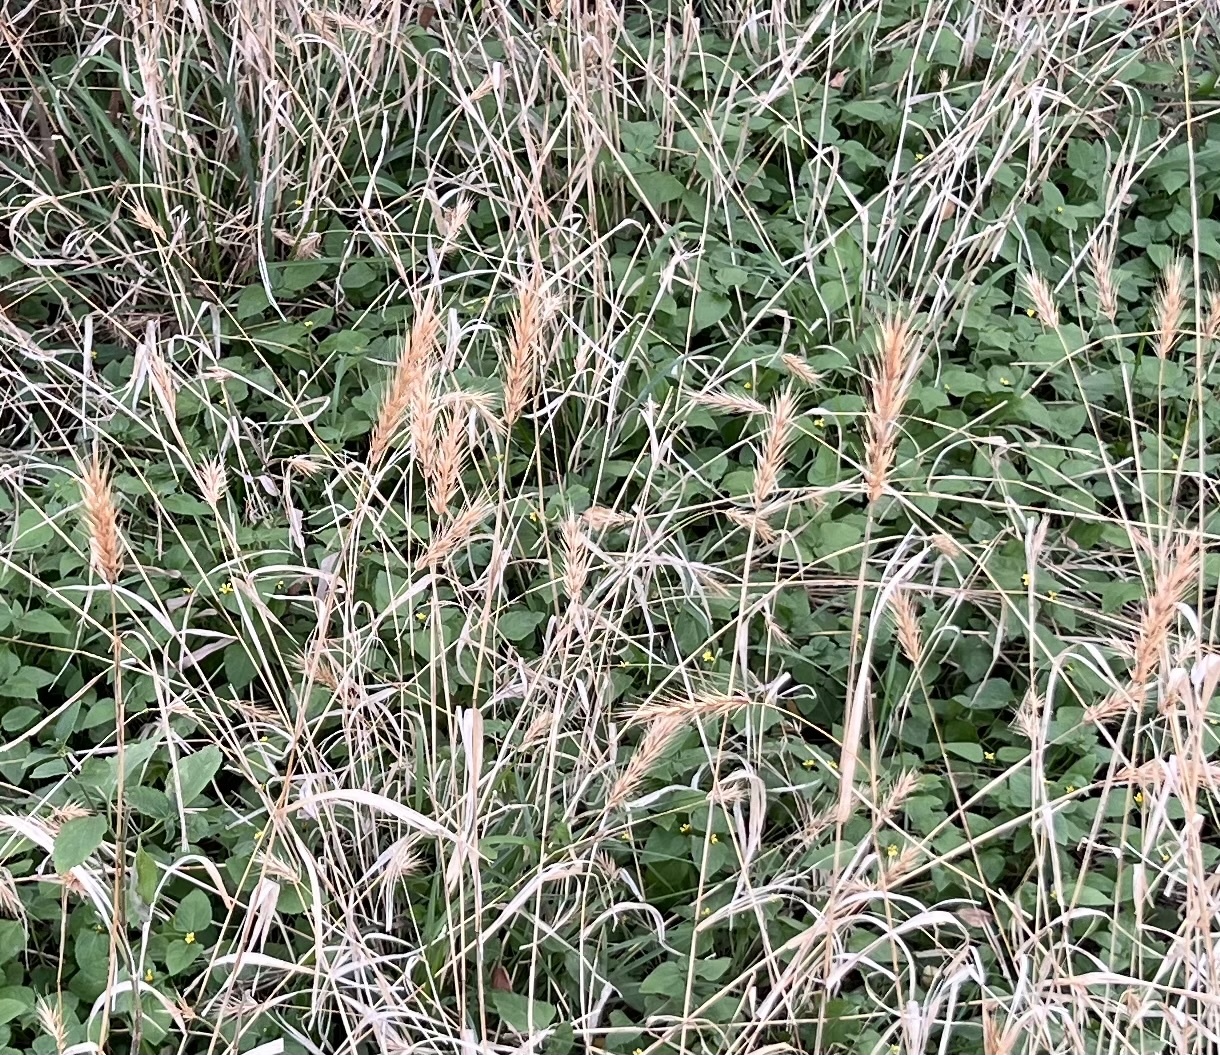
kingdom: Plantae
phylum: Tracheophyta
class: Liliopsida
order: Poales
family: Poaceae
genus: Elymus
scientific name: Elymus virginicus
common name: Common eastern wildrye
